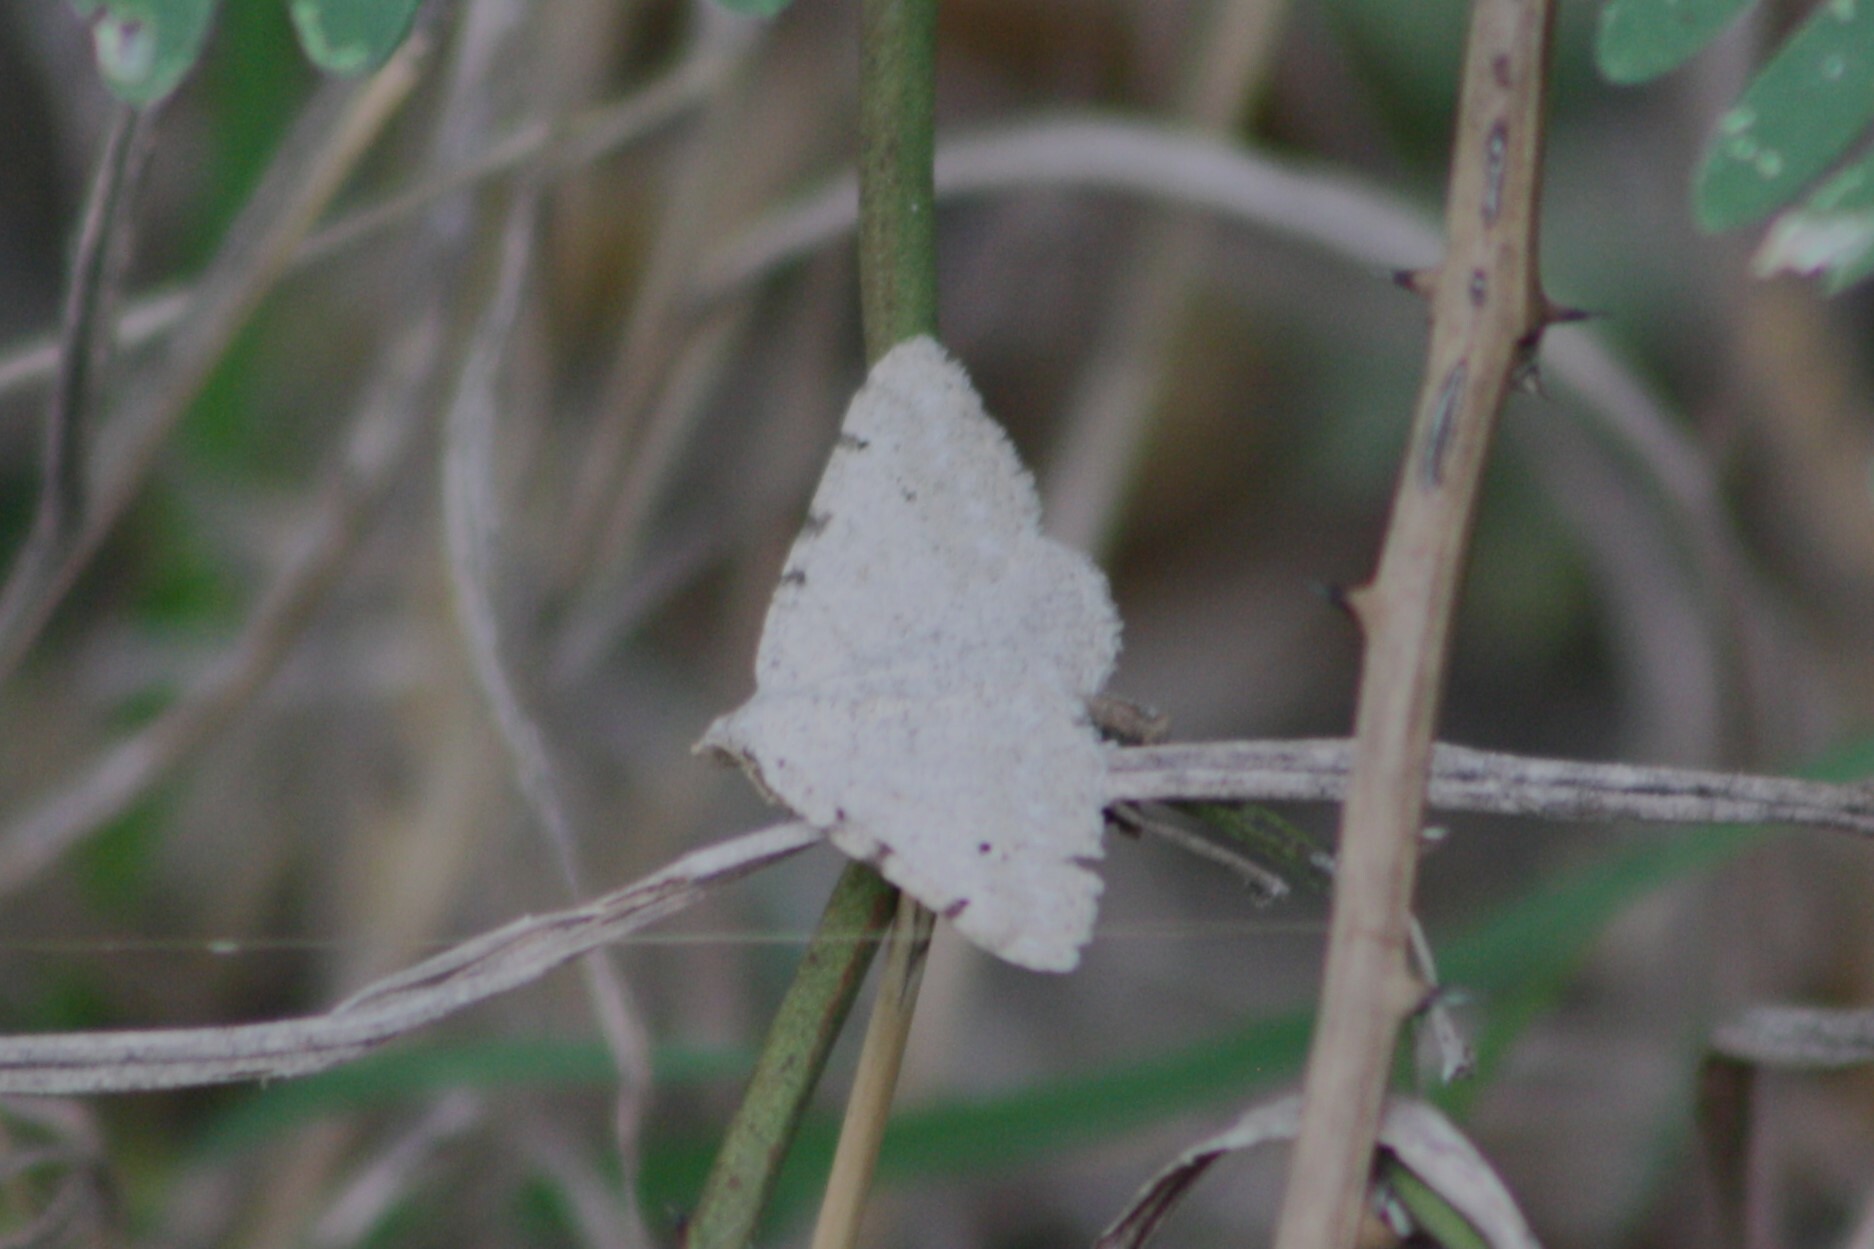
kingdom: Animalia
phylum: Arthropoda
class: Insecta
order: Lepidoptera
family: Geometridae
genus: Digrammia
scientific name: Digrammia pallidata
